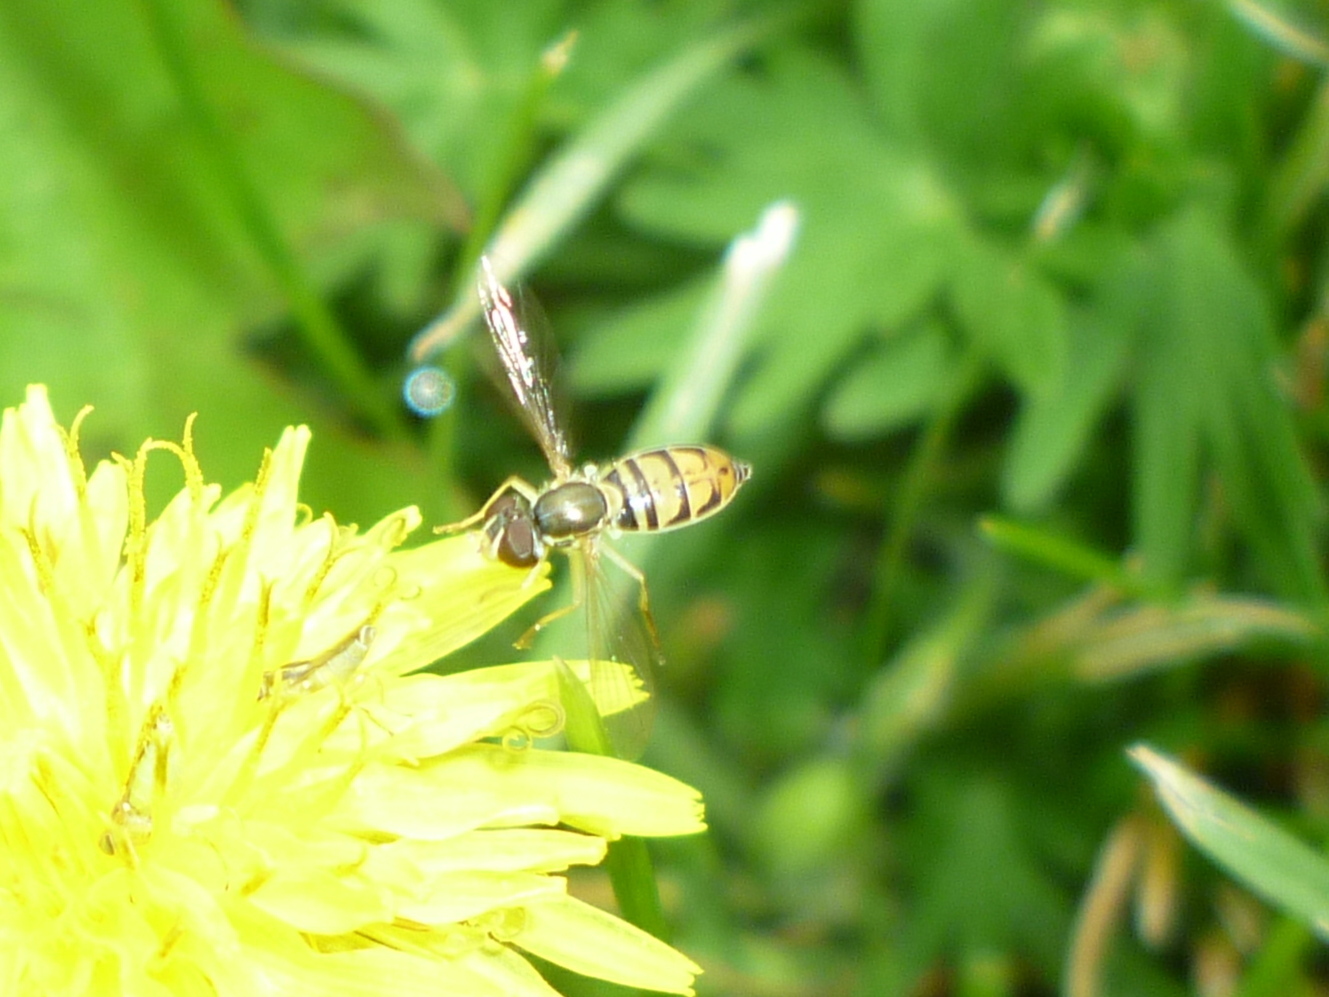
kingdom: Animalia
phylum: Arthropoda
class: Insecta
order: Diptera
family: Syrphidae
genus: Toxomerus
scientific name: Toxomerus marginatus
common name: Syrphid fly
